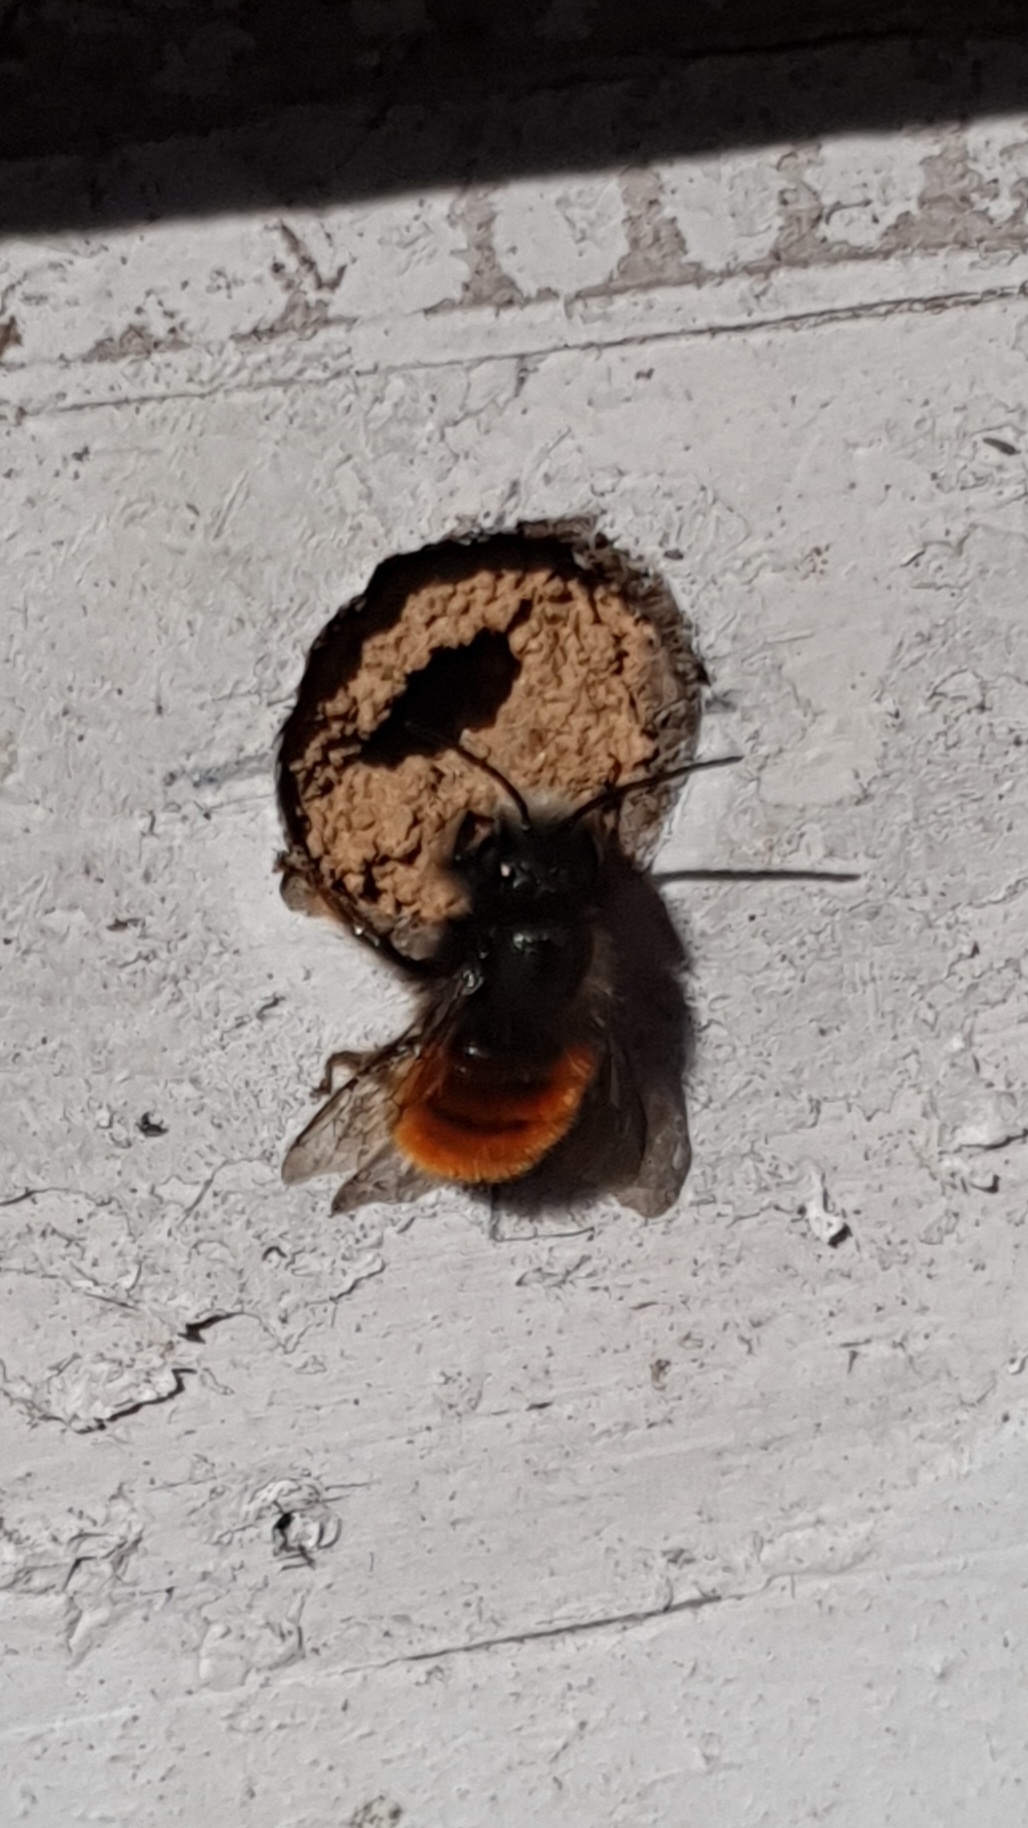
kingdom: Animalia
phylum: Arthropoda
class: Insecta
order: Hymenoptera
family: Megachilidae
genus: Osmia
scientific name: Osmia cornuta
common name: Mason bee
